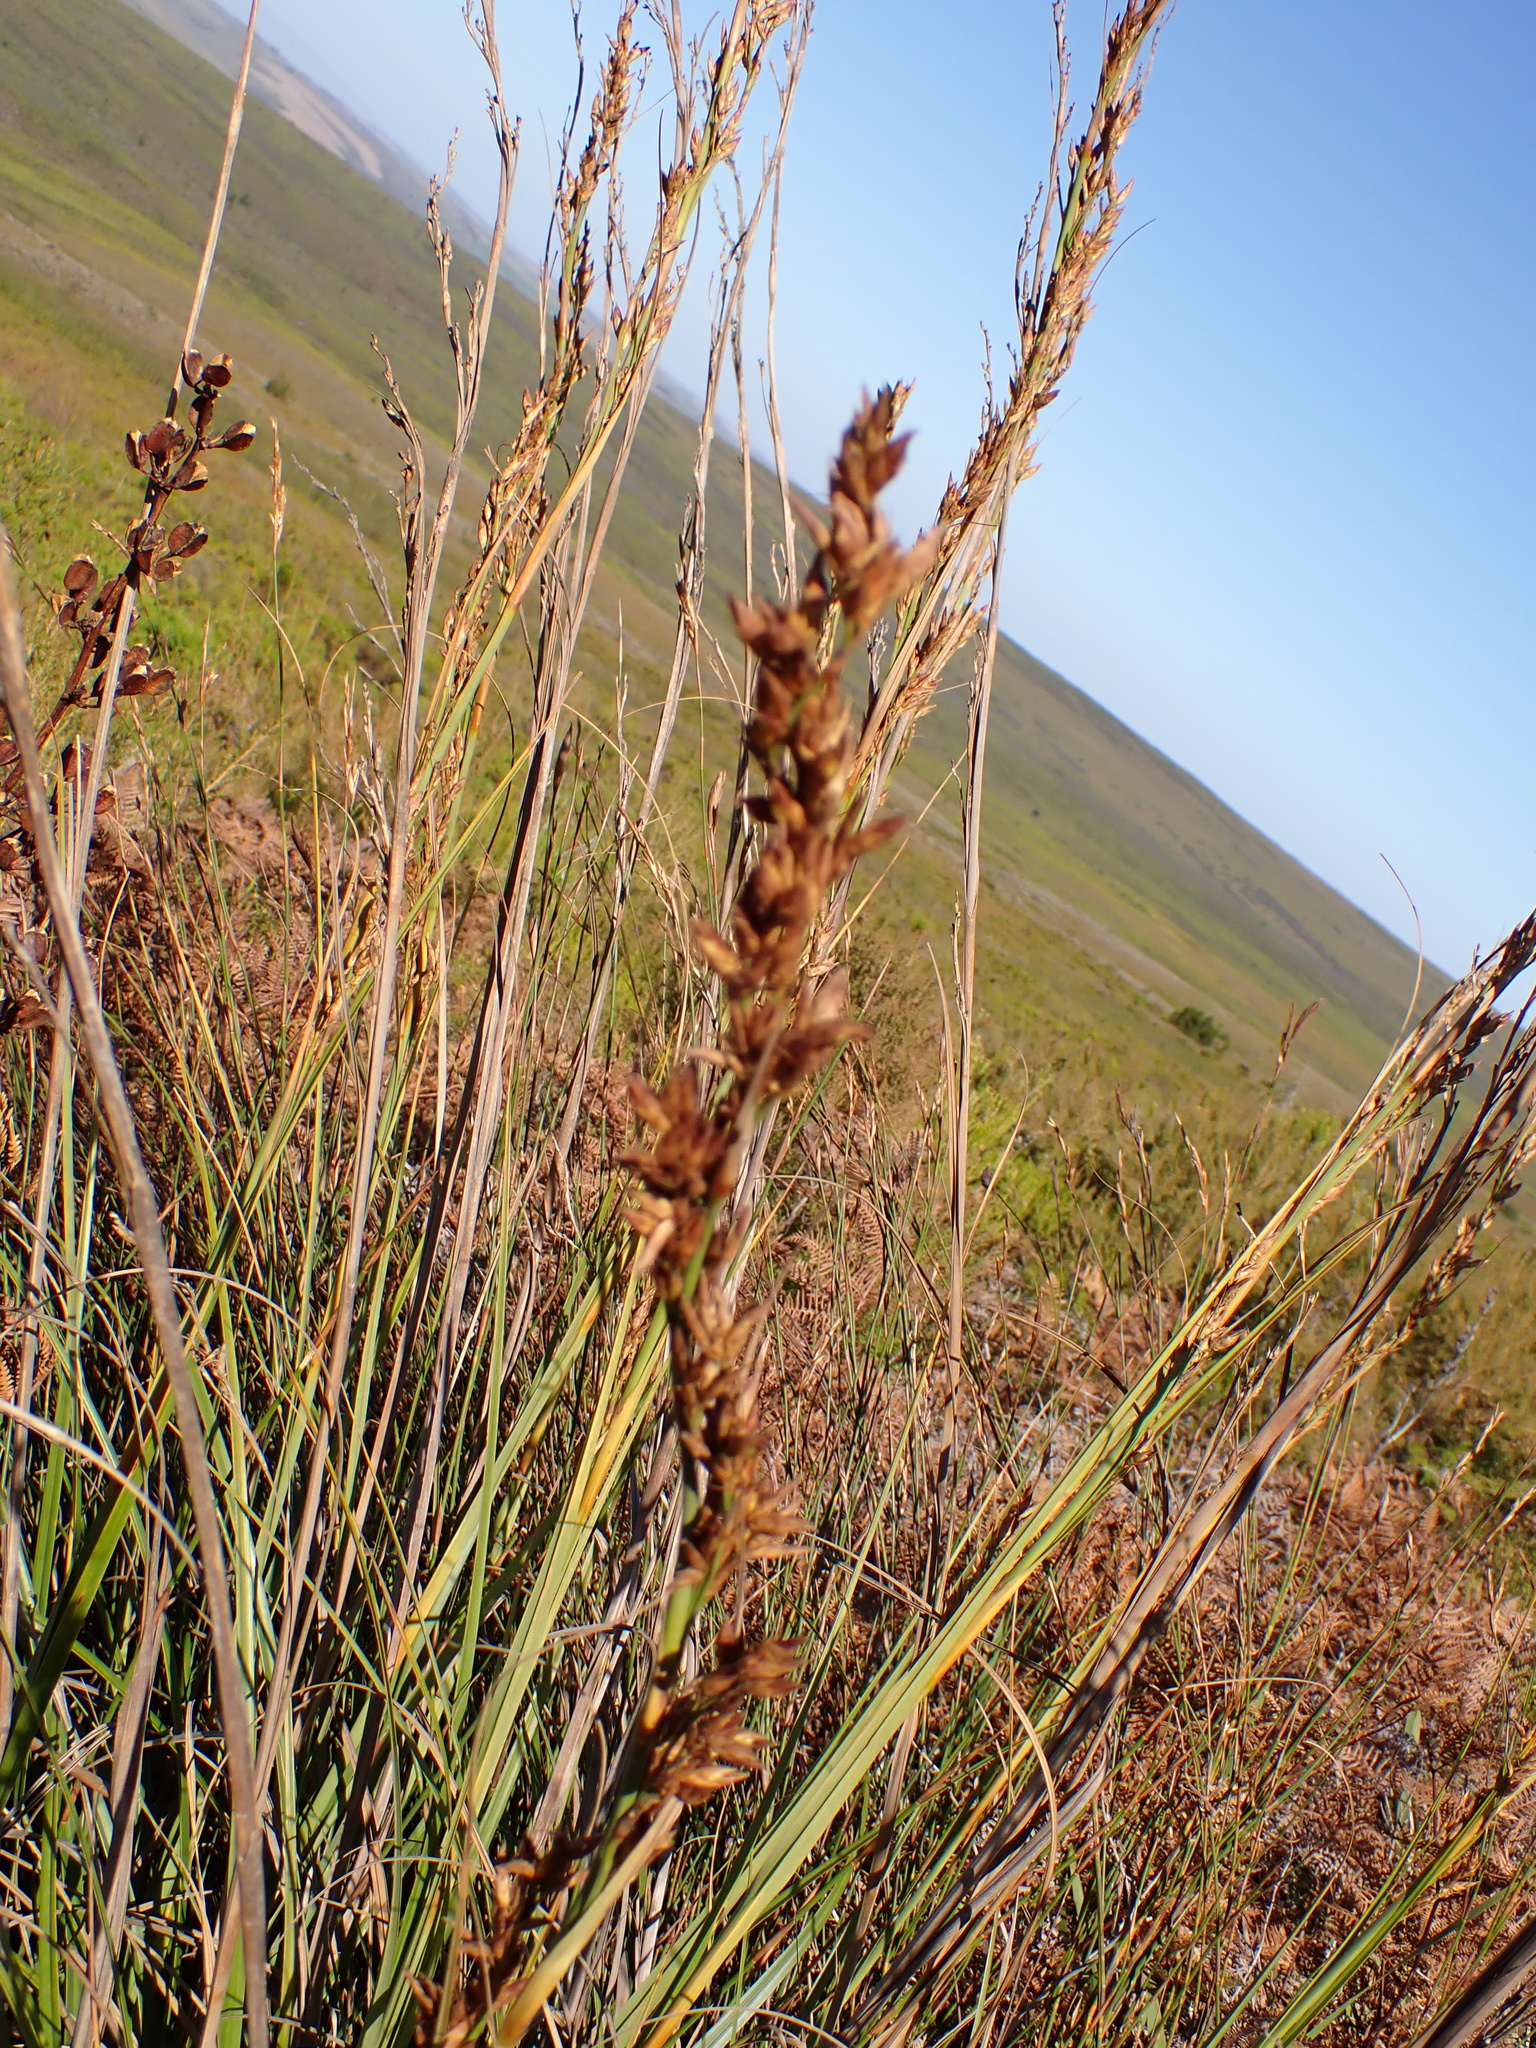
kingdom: Plantae
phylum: Tracheophyta
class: Liliopsida
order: Asparagales
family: Iridaceae
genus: Aristea
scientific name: Aristea bakeri
